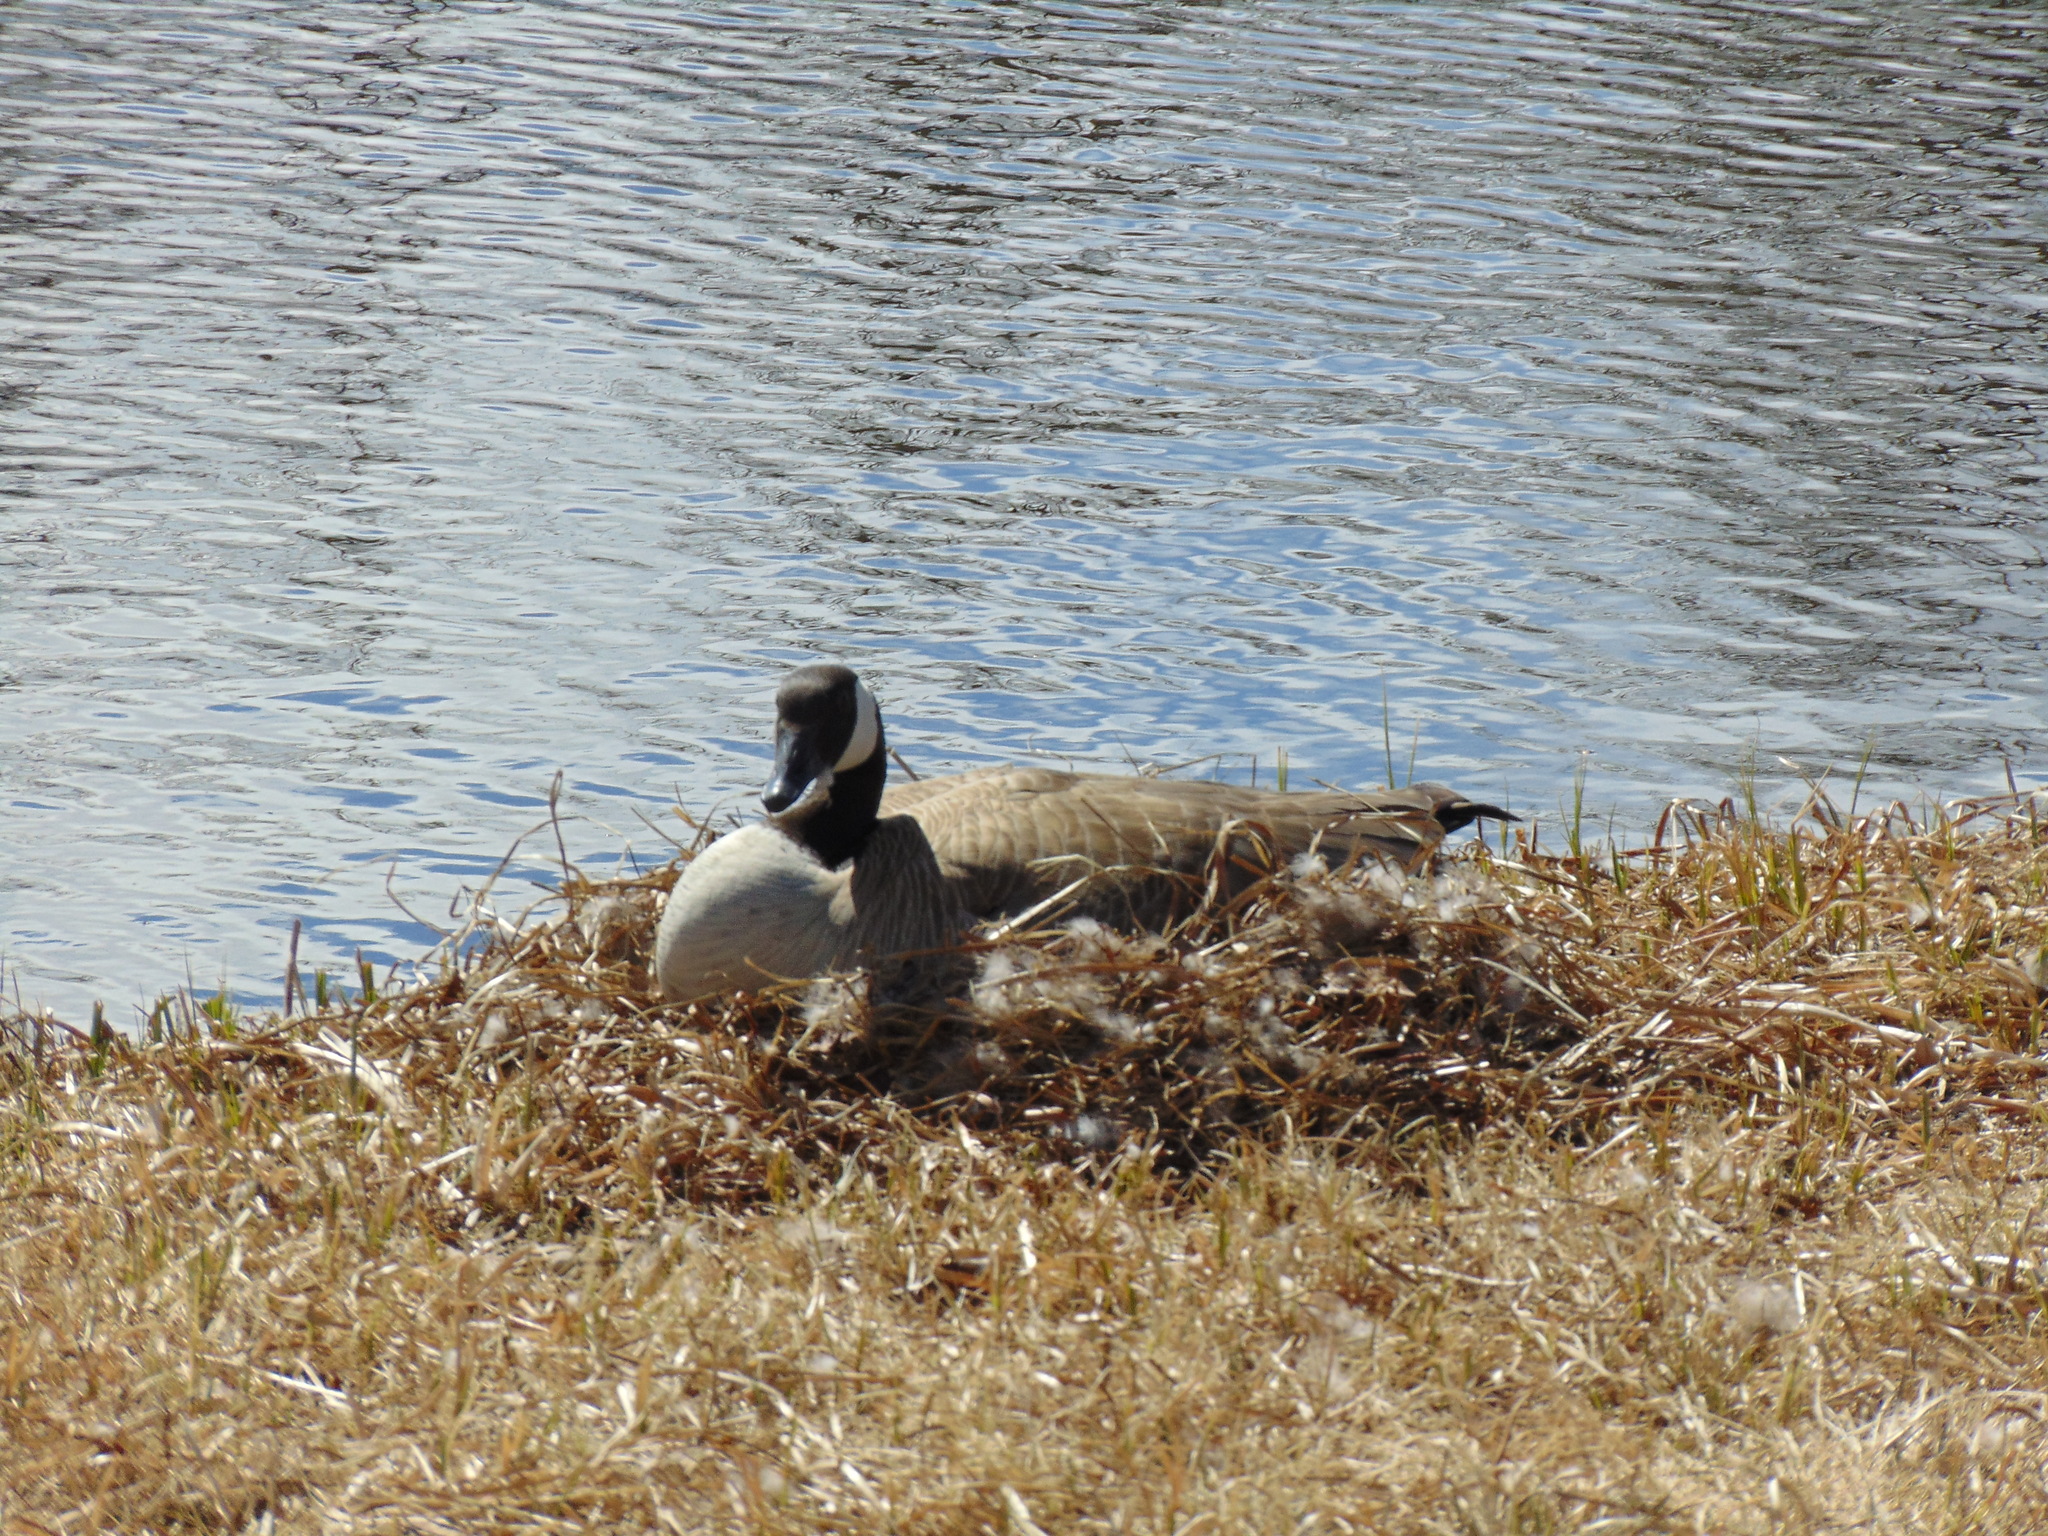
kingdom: Animalia
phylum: Chordata
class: Aves
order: Anseriformes
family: Anatidae
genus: Branta
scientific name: Branta canadensis
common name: Canada goose
